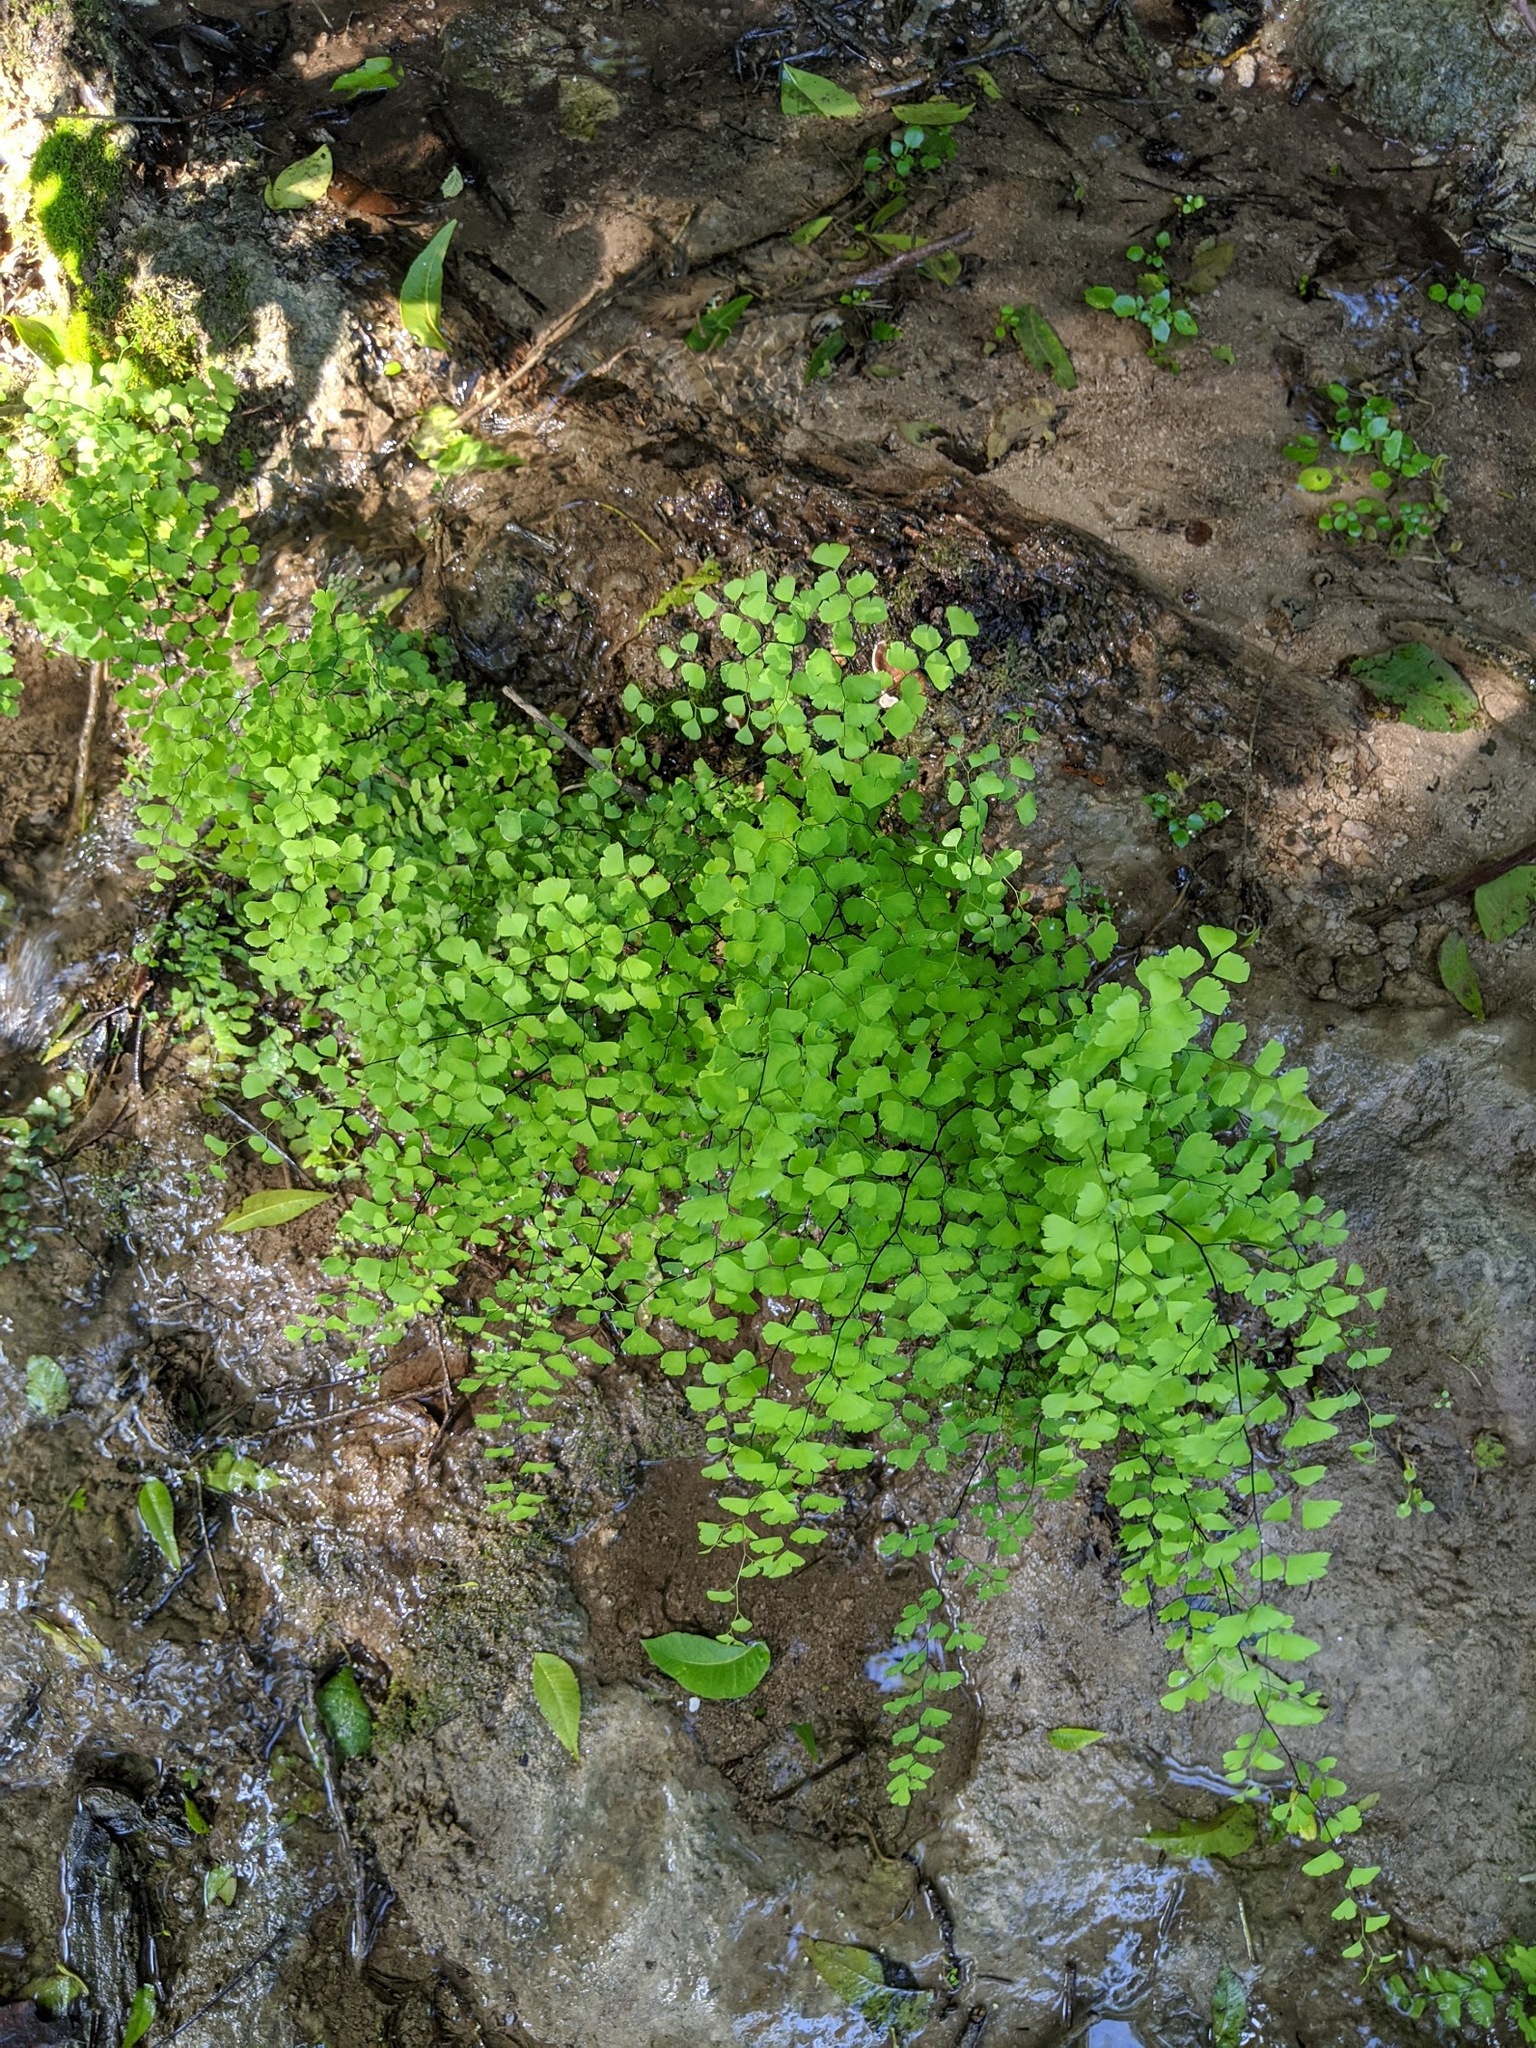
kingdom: Plantae
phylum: Tracheophyta
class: Polypodiopsida
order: Polypodiales
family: Pteridaceae
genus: Adiantum
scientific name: Adiantum capillus-veneris
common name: Maidenhair fern
